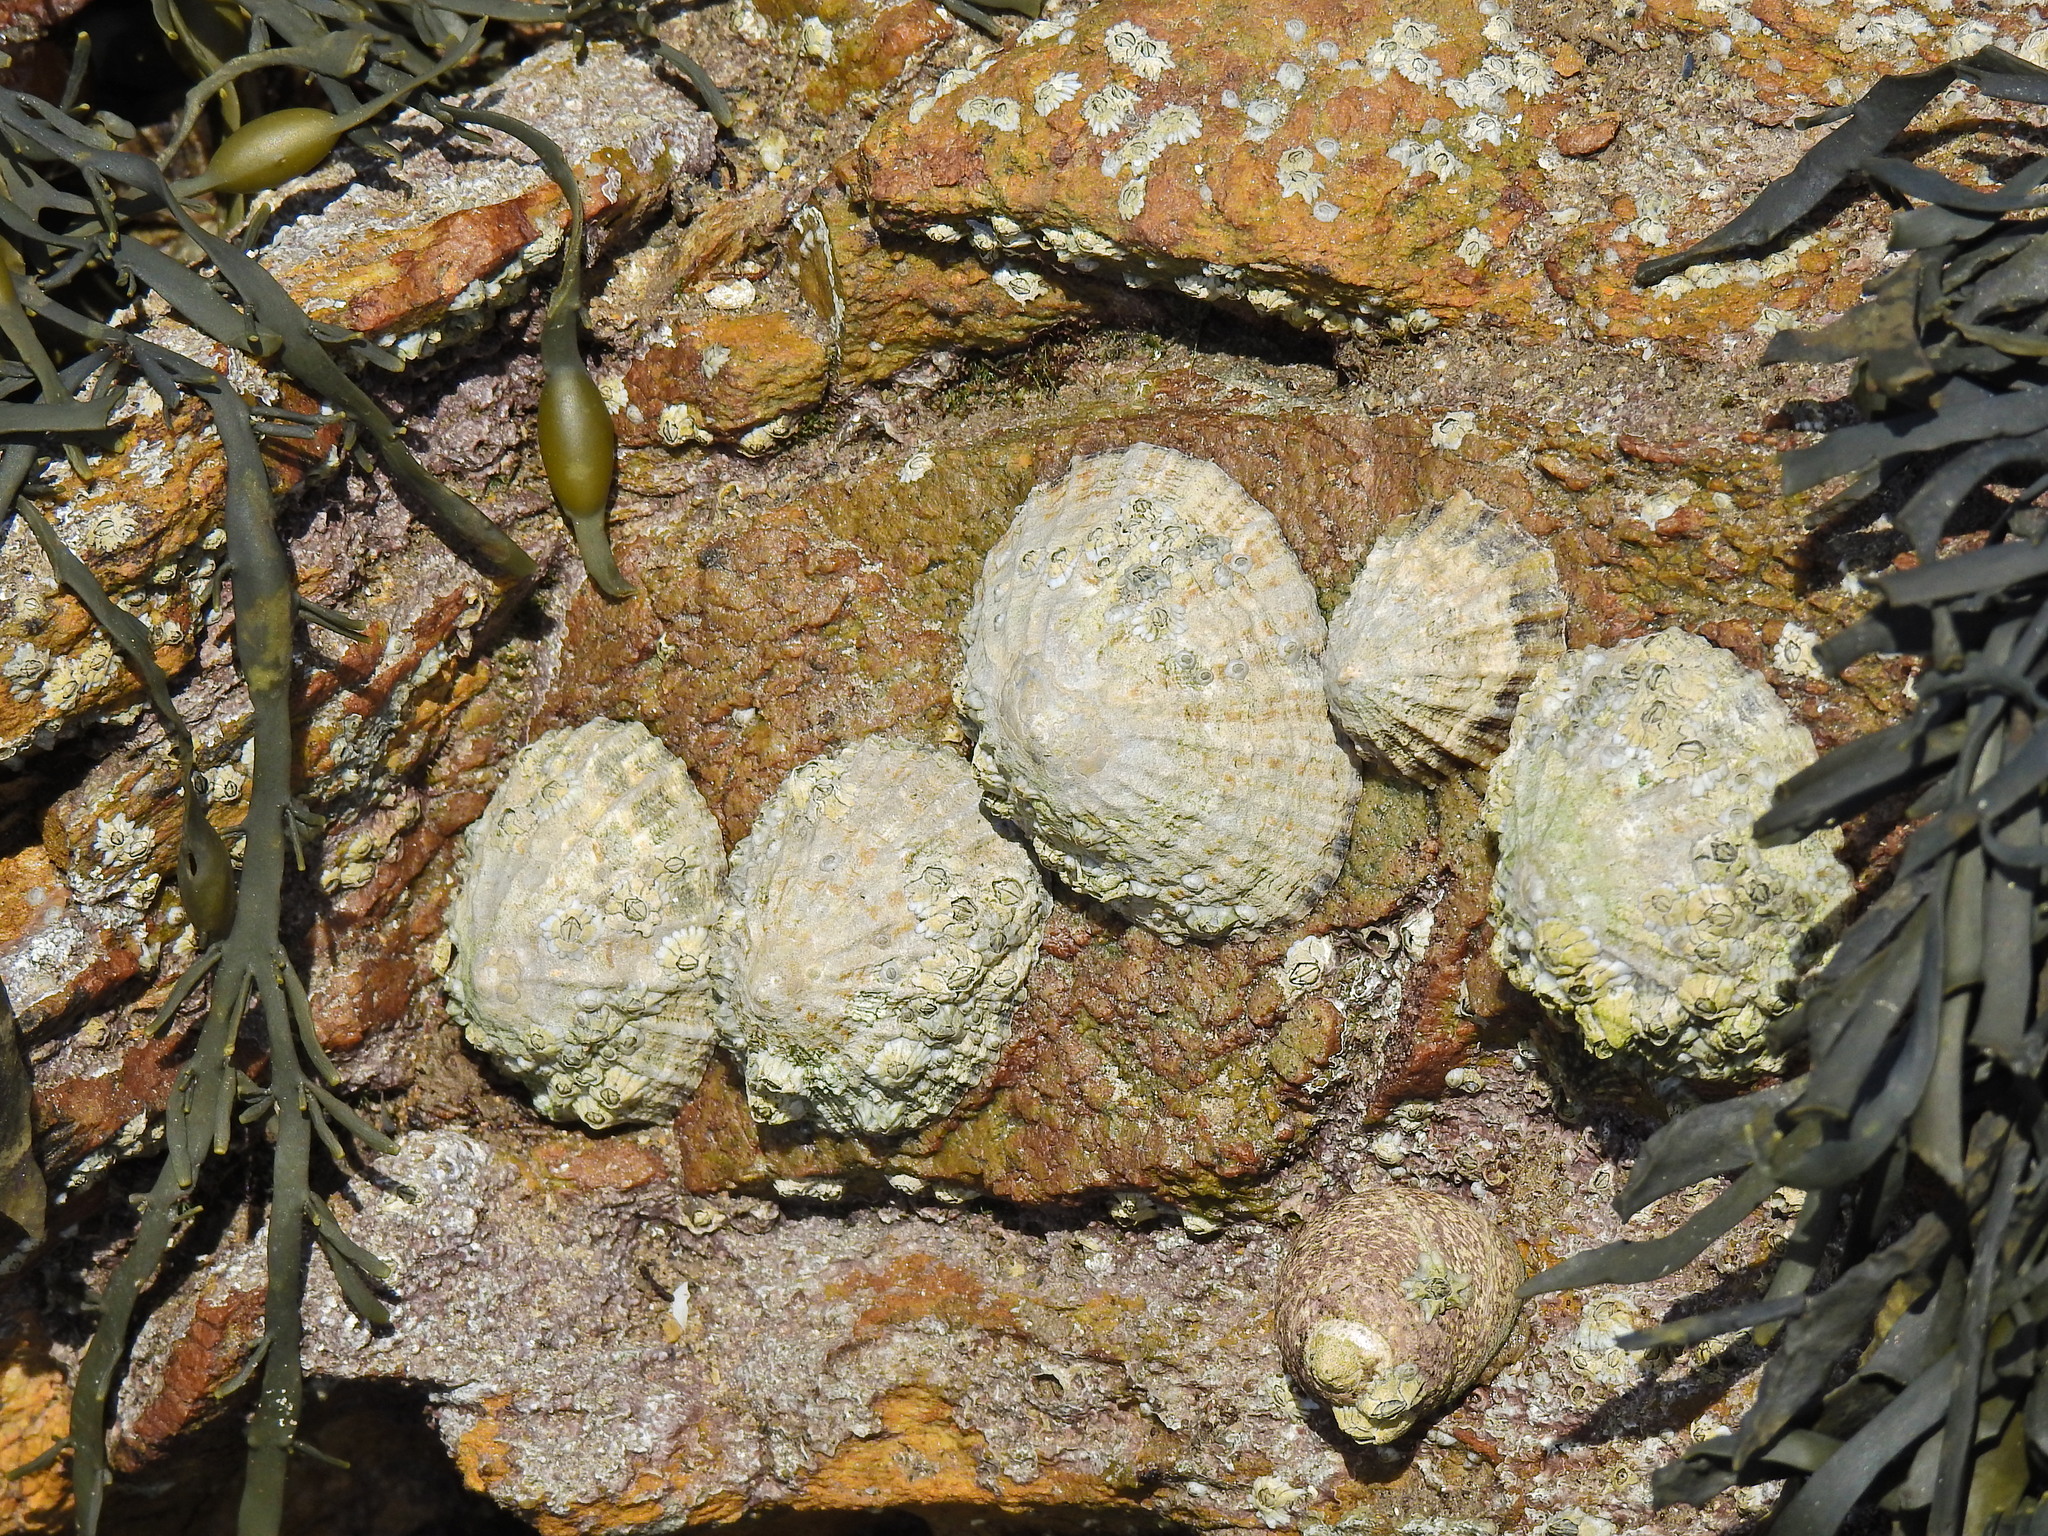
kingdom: Animalia
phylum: Mollusca
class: Gastropoda
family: Patellidae
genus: Patella
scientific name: Patella vulgata
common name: Common limpet
